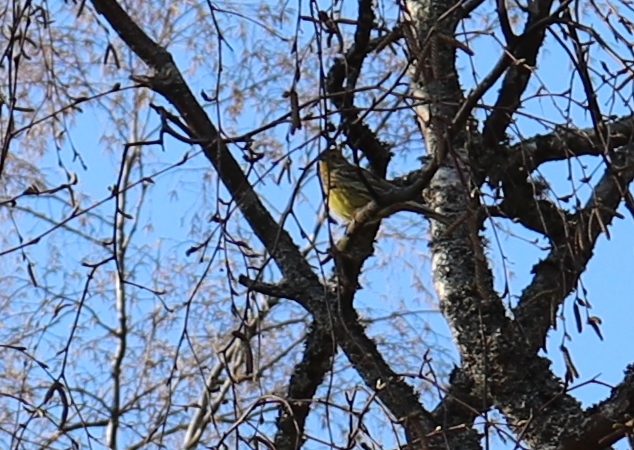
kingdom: Animalia
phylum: Chordata
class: Aves
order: Passeriformes
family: Emberizidae
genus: Emberiza
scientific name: Emberiza citrinella
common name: Yellowhammer
